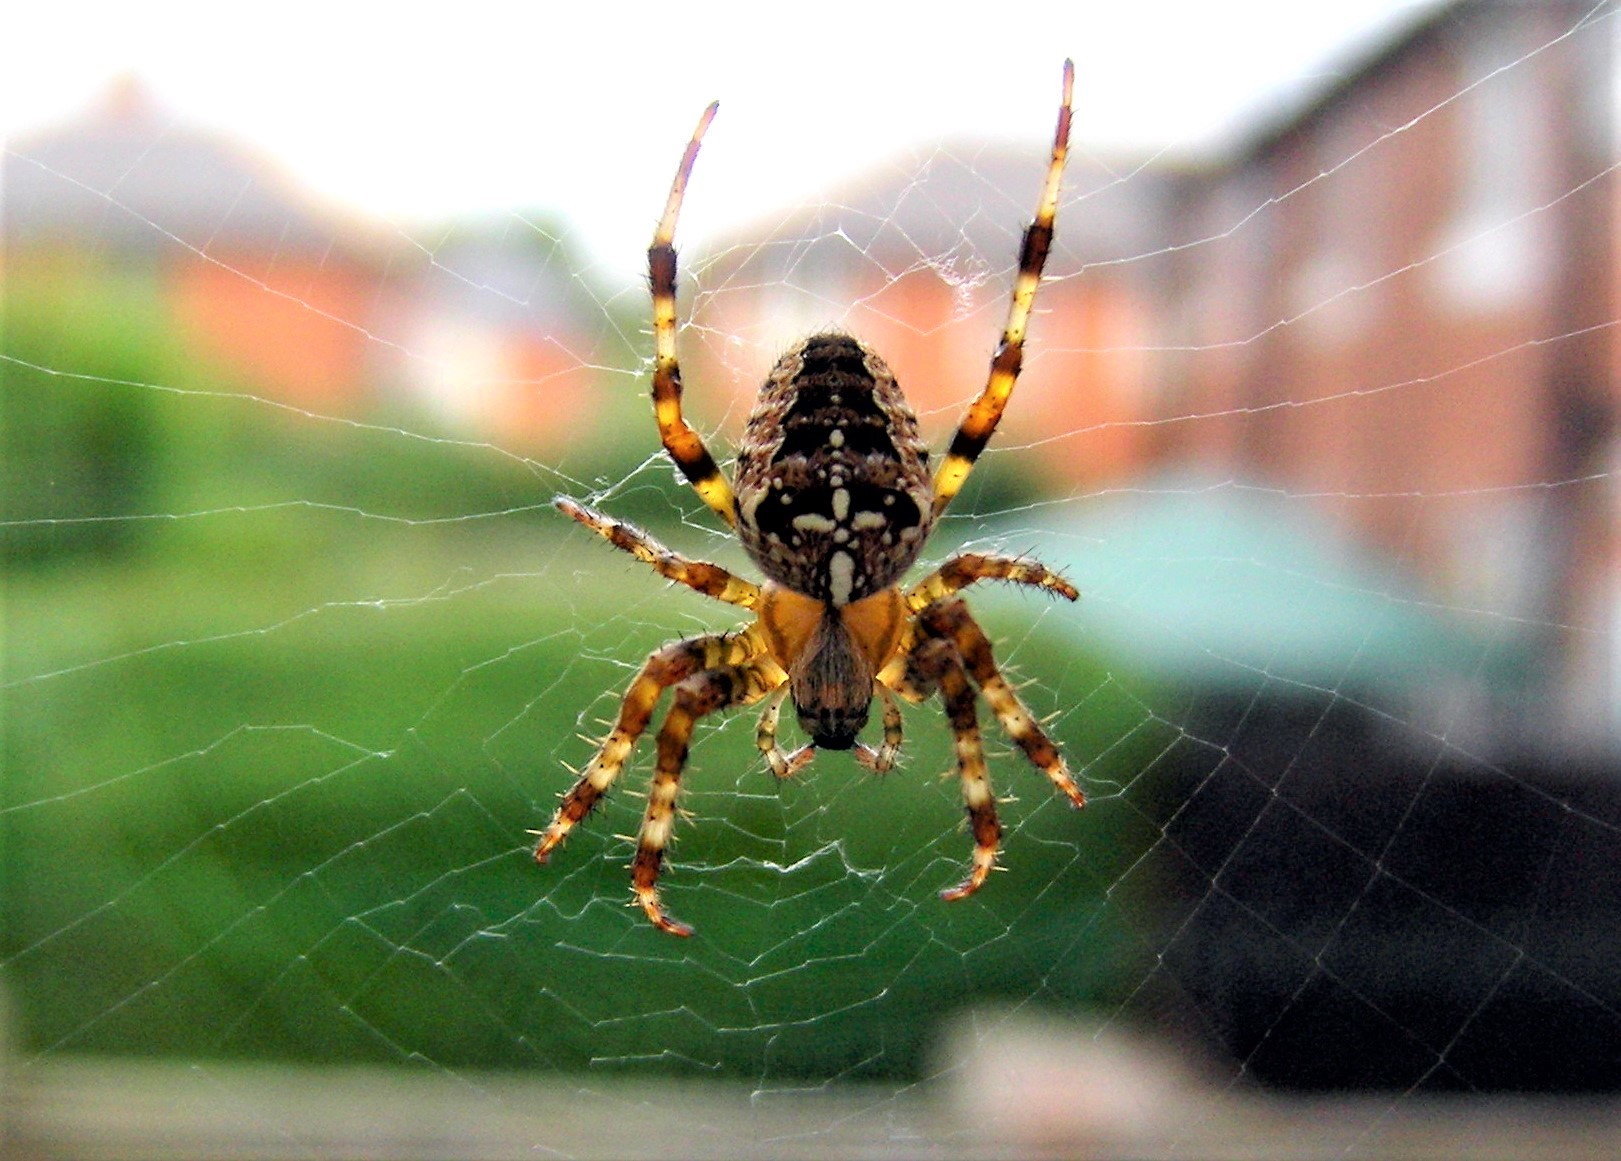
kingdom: Animalia
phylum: Arthropoda
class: Arachnida
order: Araneae
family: Araneidae
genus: Araneus
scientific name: Araneus diadematus
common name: Cross orbweaver
